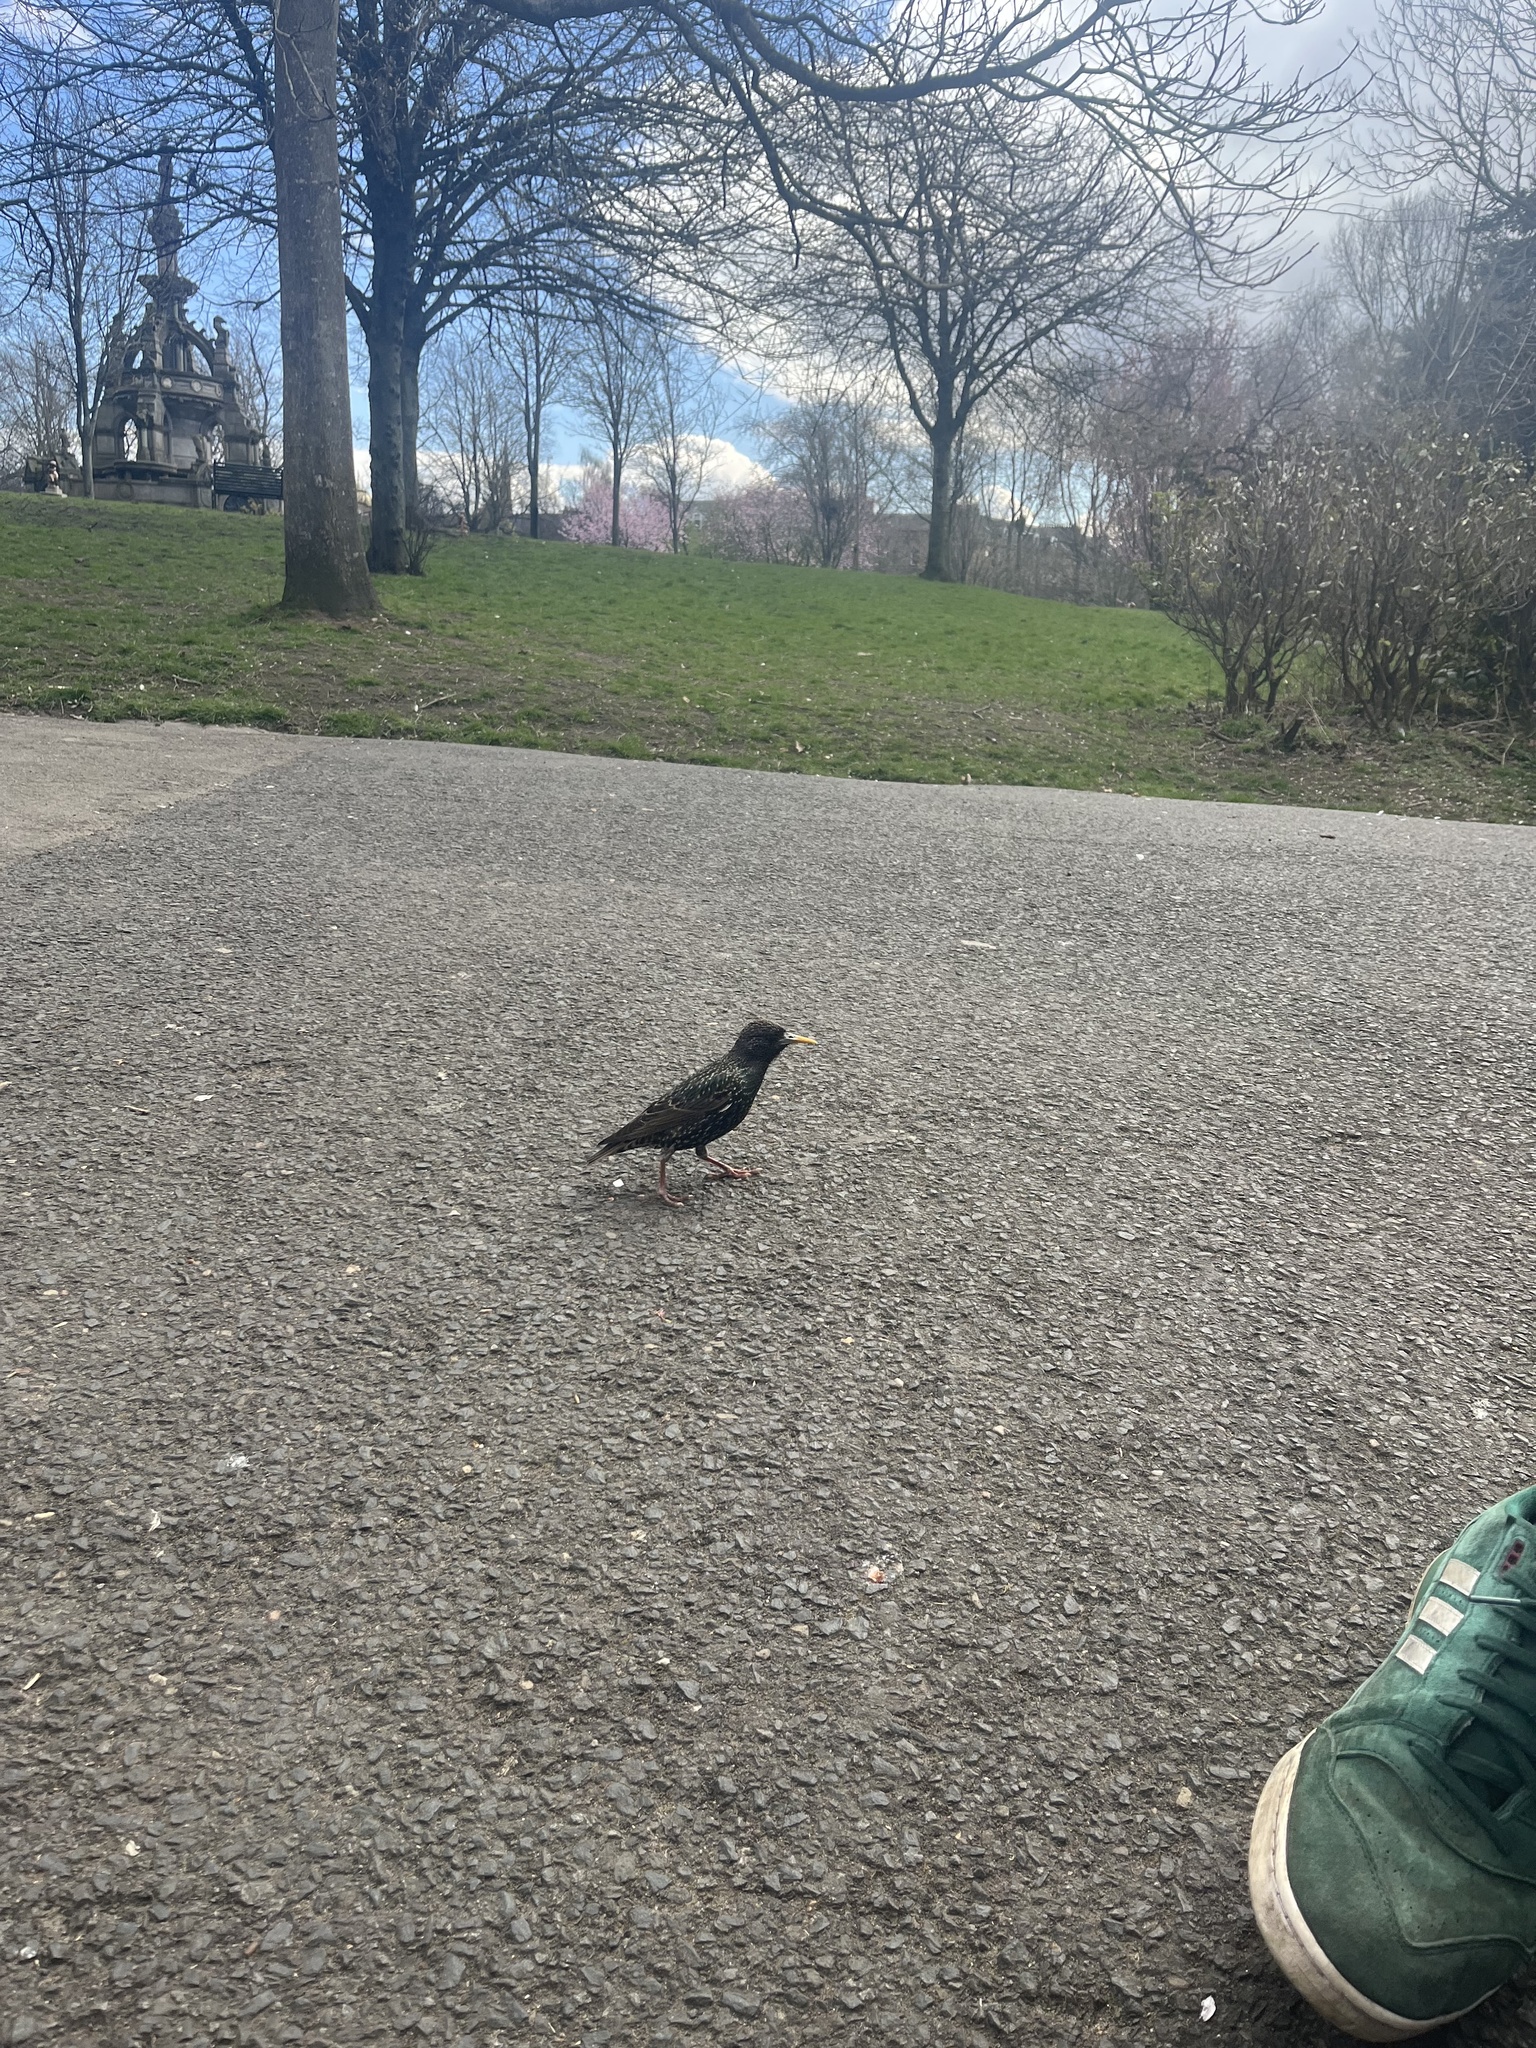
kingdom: Animalia
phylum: Chordata
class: Aves
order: Passeriformes
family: Sturnidae
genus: Sturnus
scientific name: Sturnus vulgaris
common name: Common starling
